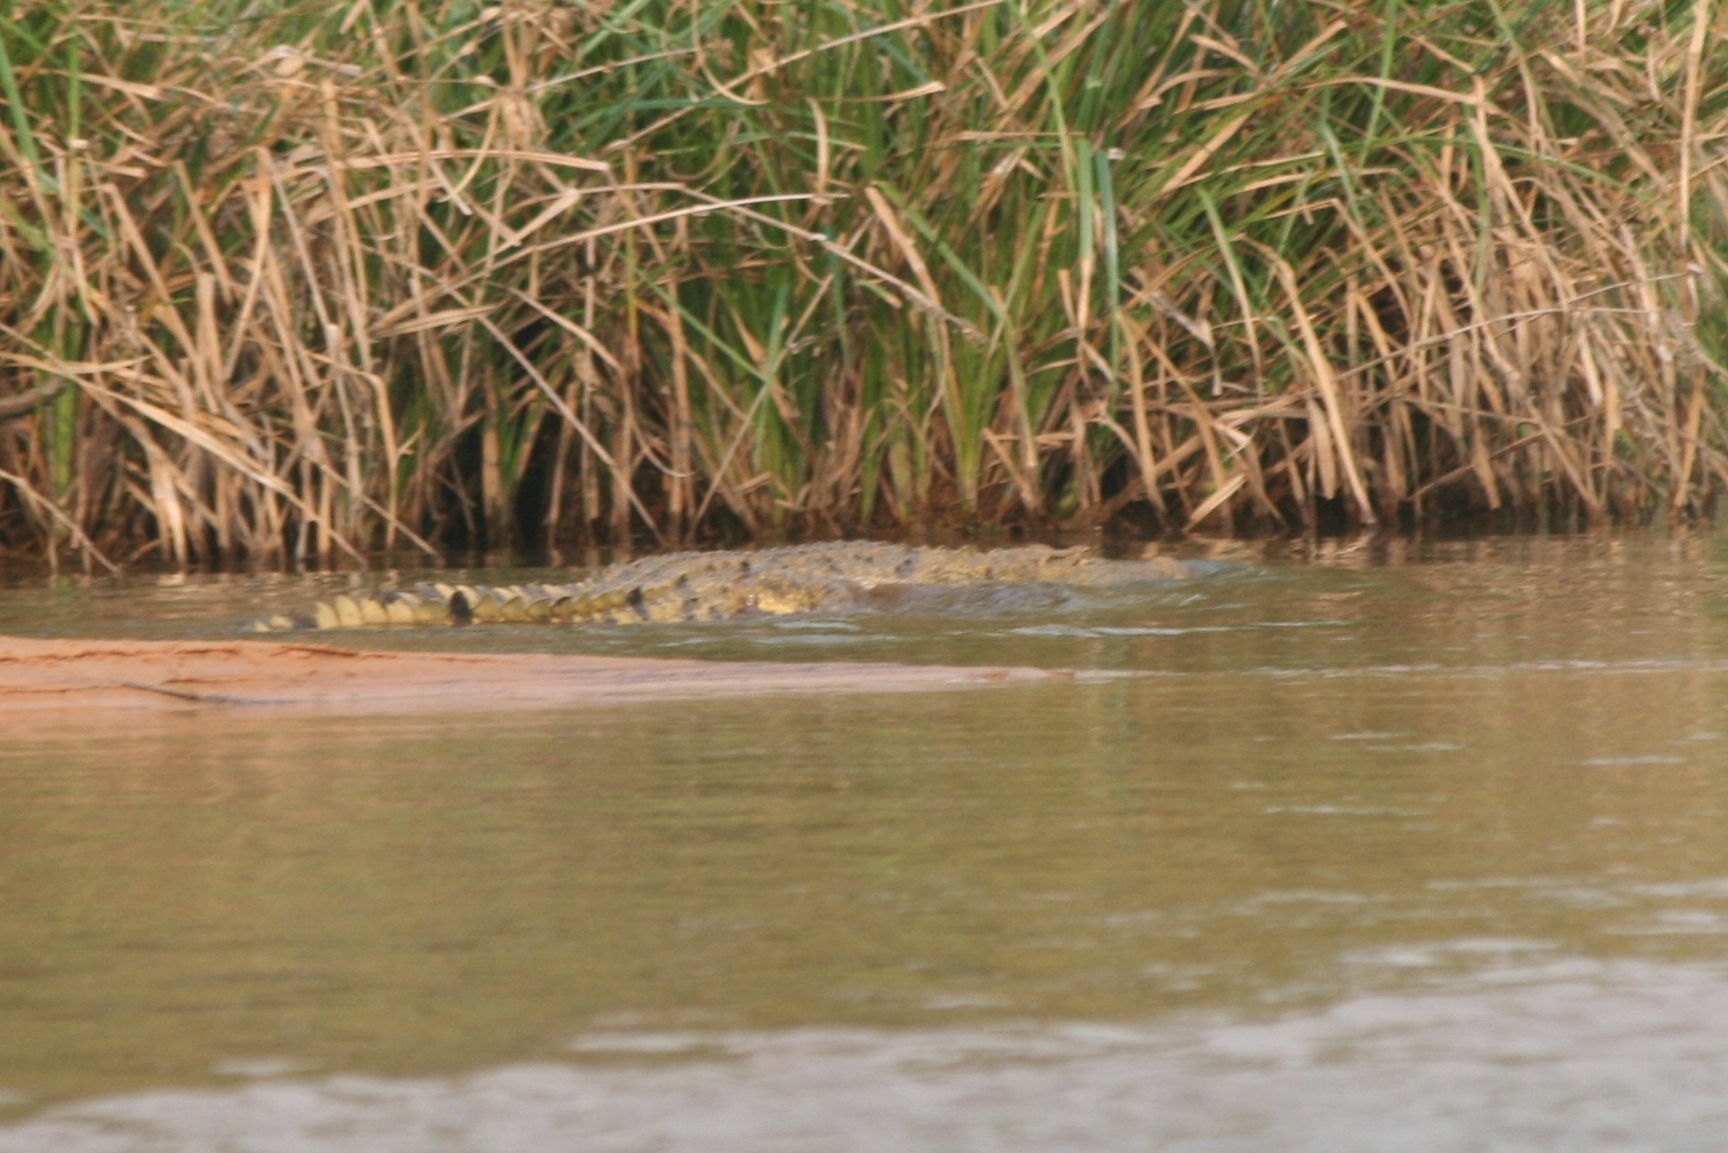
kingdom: Animalia
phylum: Chordata
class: Crocodylia
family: Crocodylidae
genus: Crocodylus
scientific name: Crocodylus niloticus
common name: Nile crocodile
